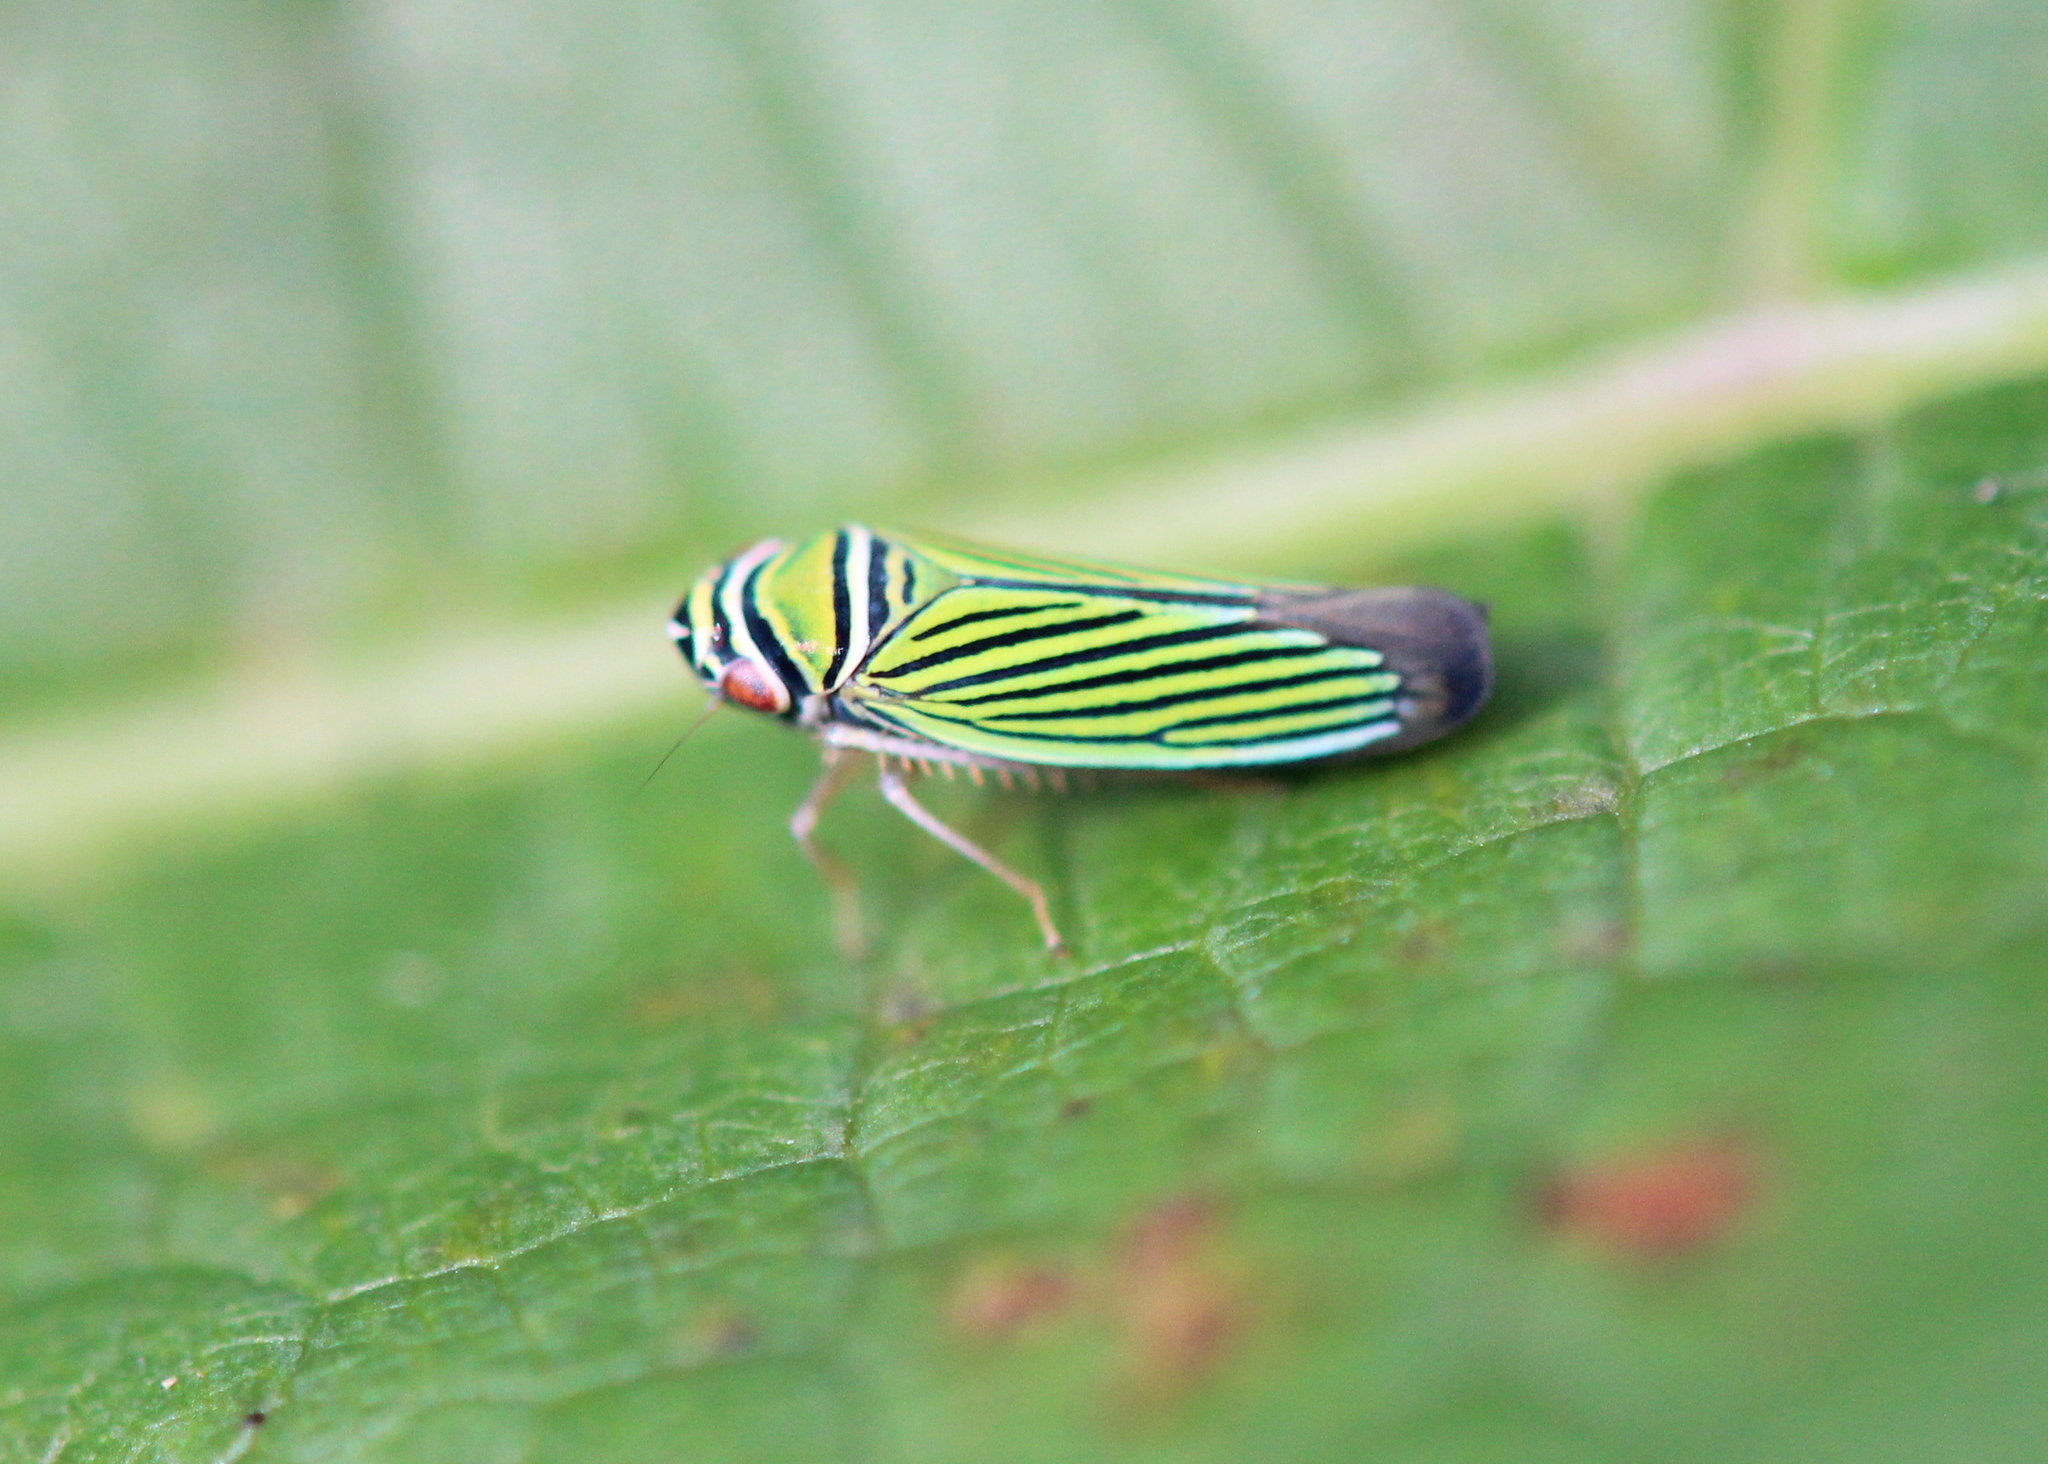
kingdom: Animalia
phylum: Arthropoda
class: Insecta
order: Hemiptera
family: Cicadellidae
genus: Tylozygus
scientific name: Tylozygus bifidus
